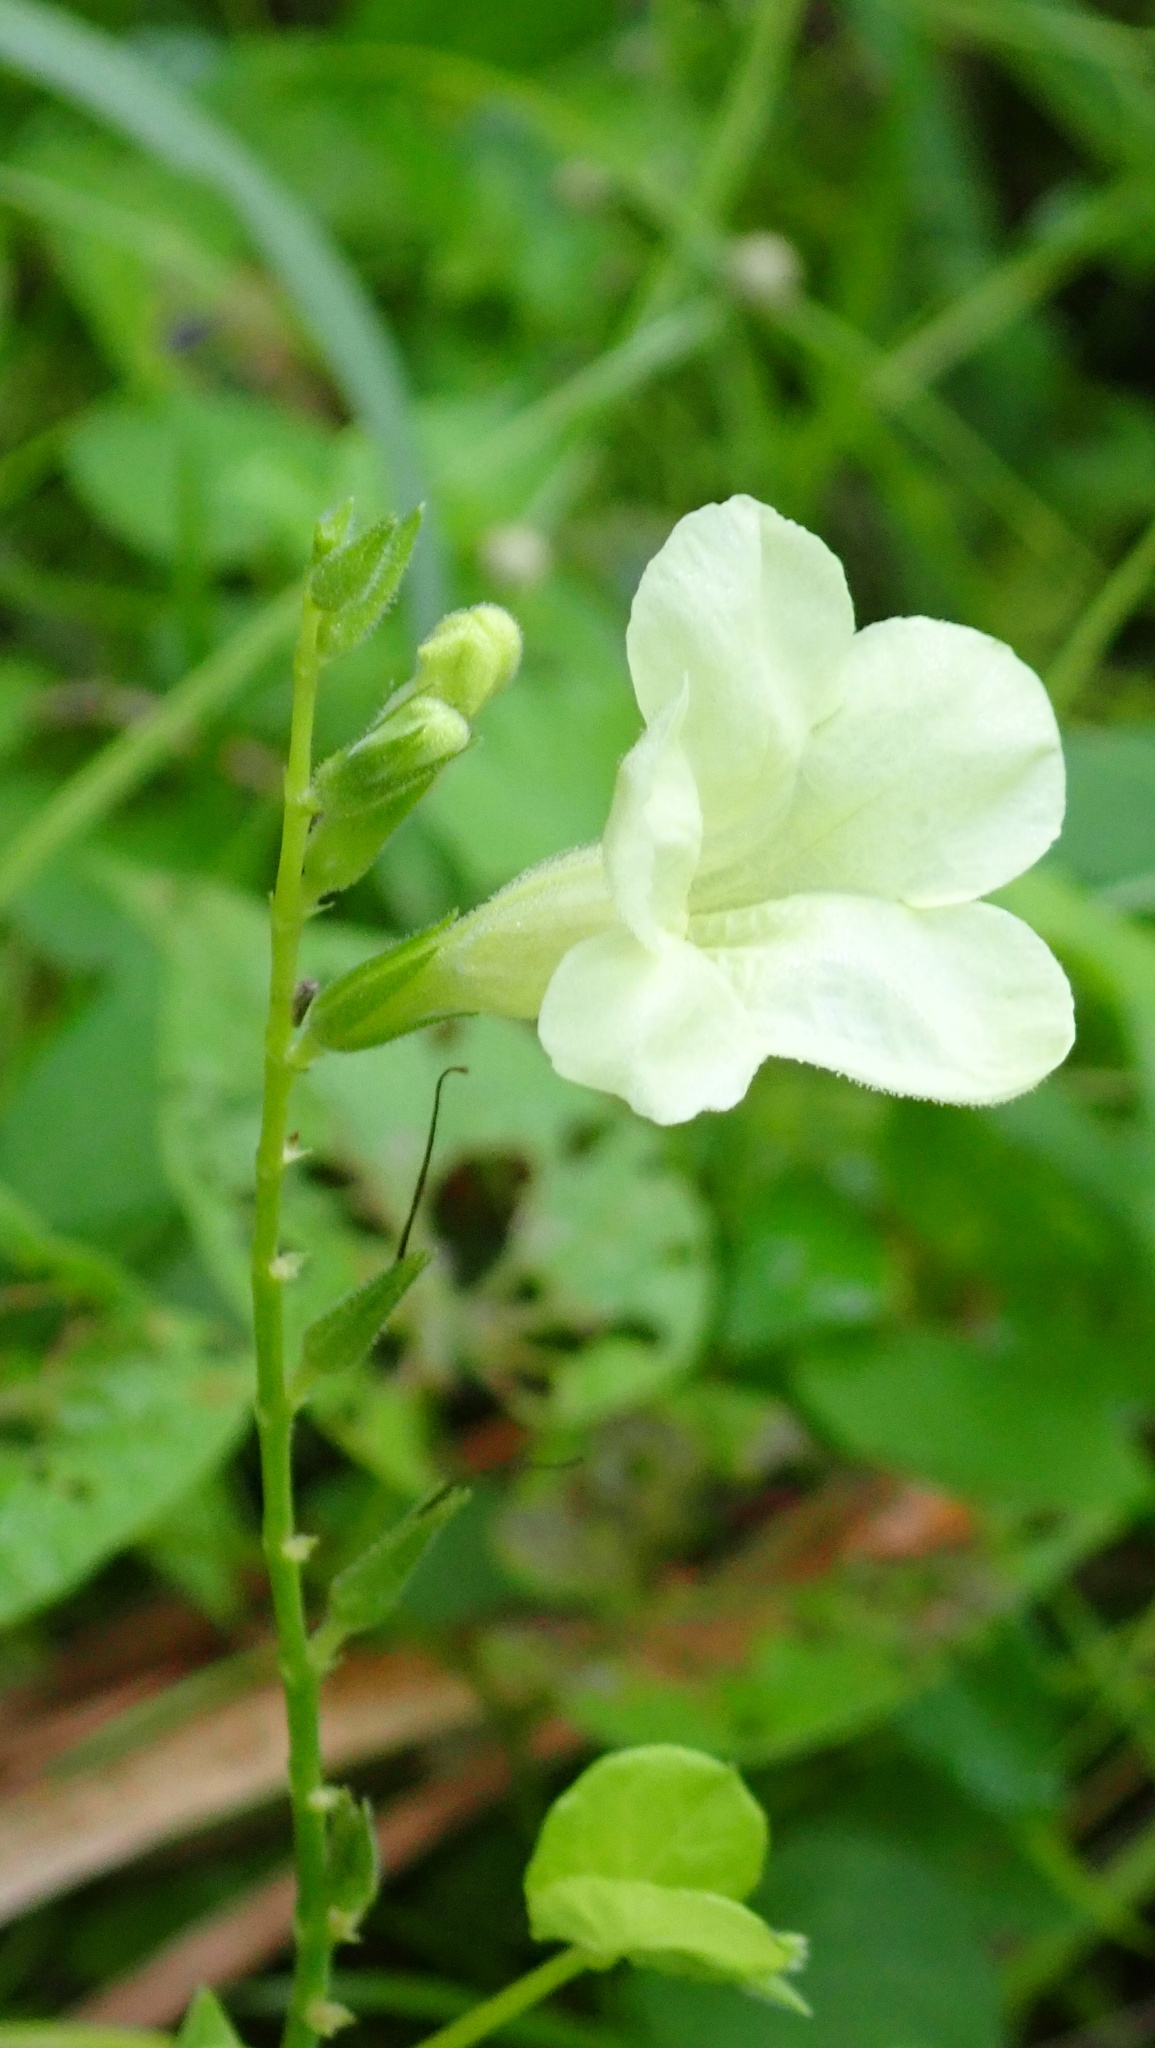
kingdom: Plantae
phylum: Tracheophyta
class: Magnoliopsida
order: Lamiales
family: Acanthaceae
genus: Asystasia
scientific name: Asystasia gangetica
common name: Chinese violet
